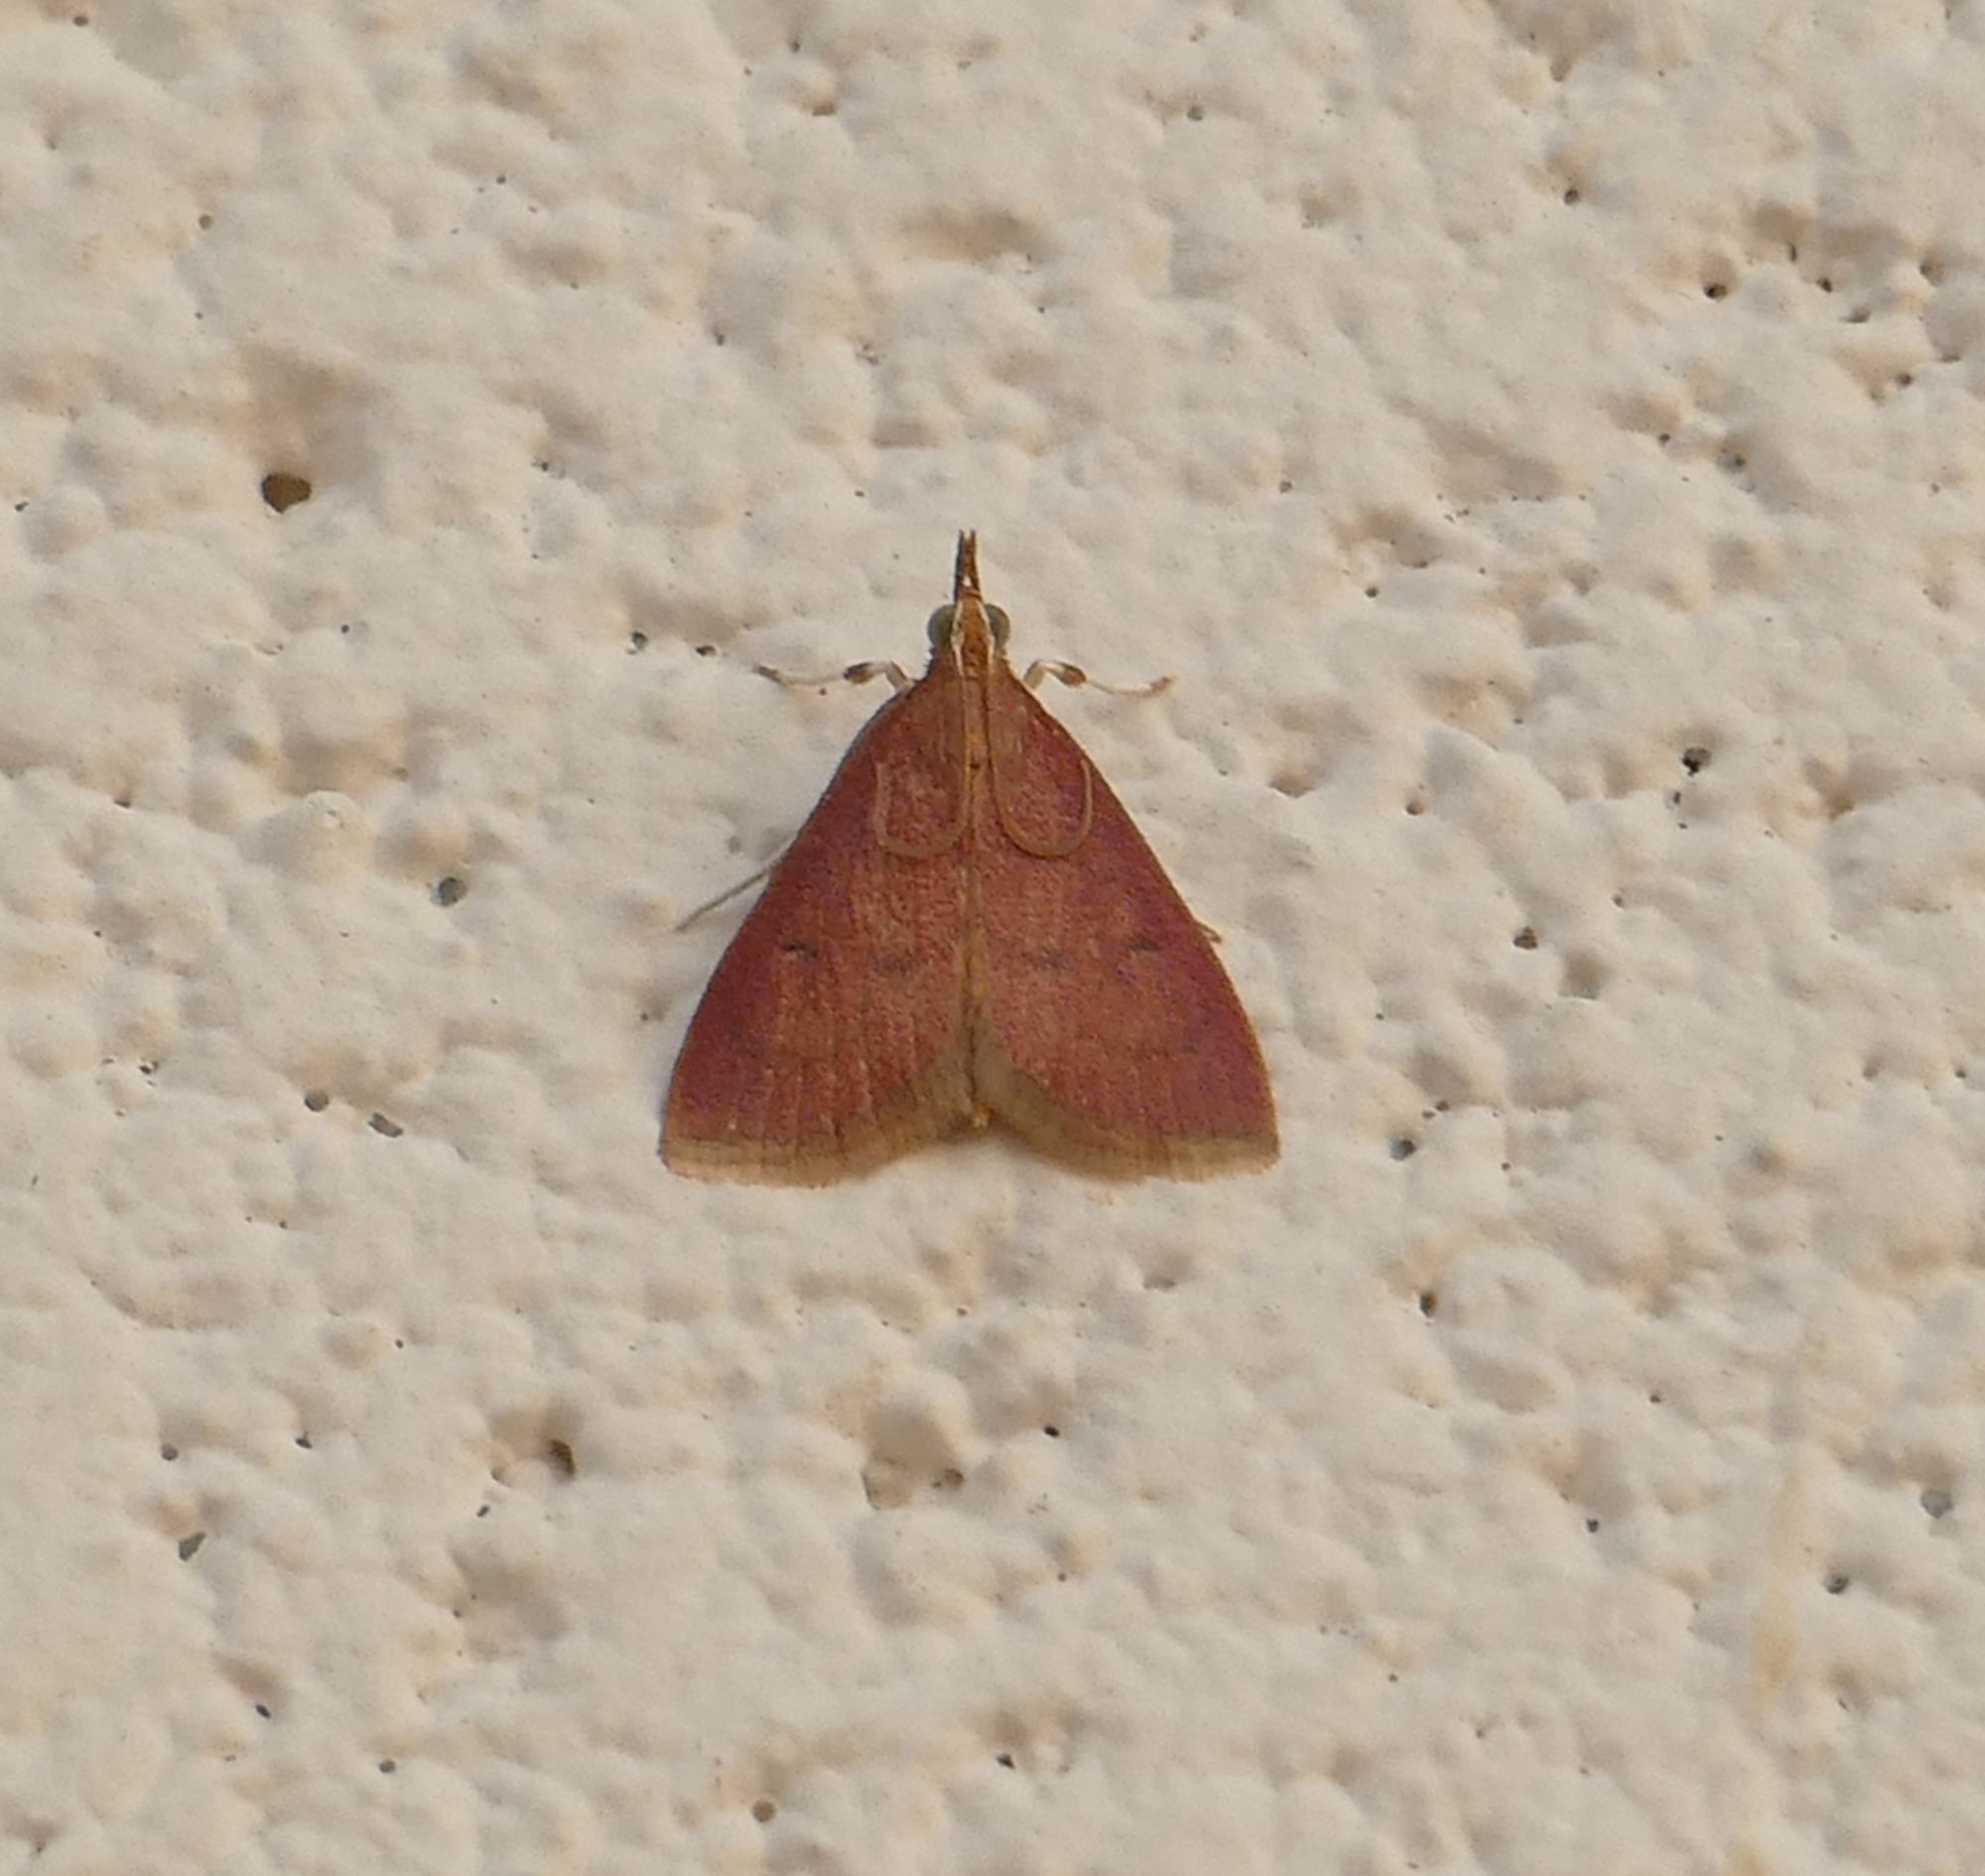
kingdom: Animalia
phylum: Arthropoda
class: Insecta
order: Lepidoptera
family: Crambidae
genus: Oenobotys
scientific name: Oenobotys vinotinctalis
